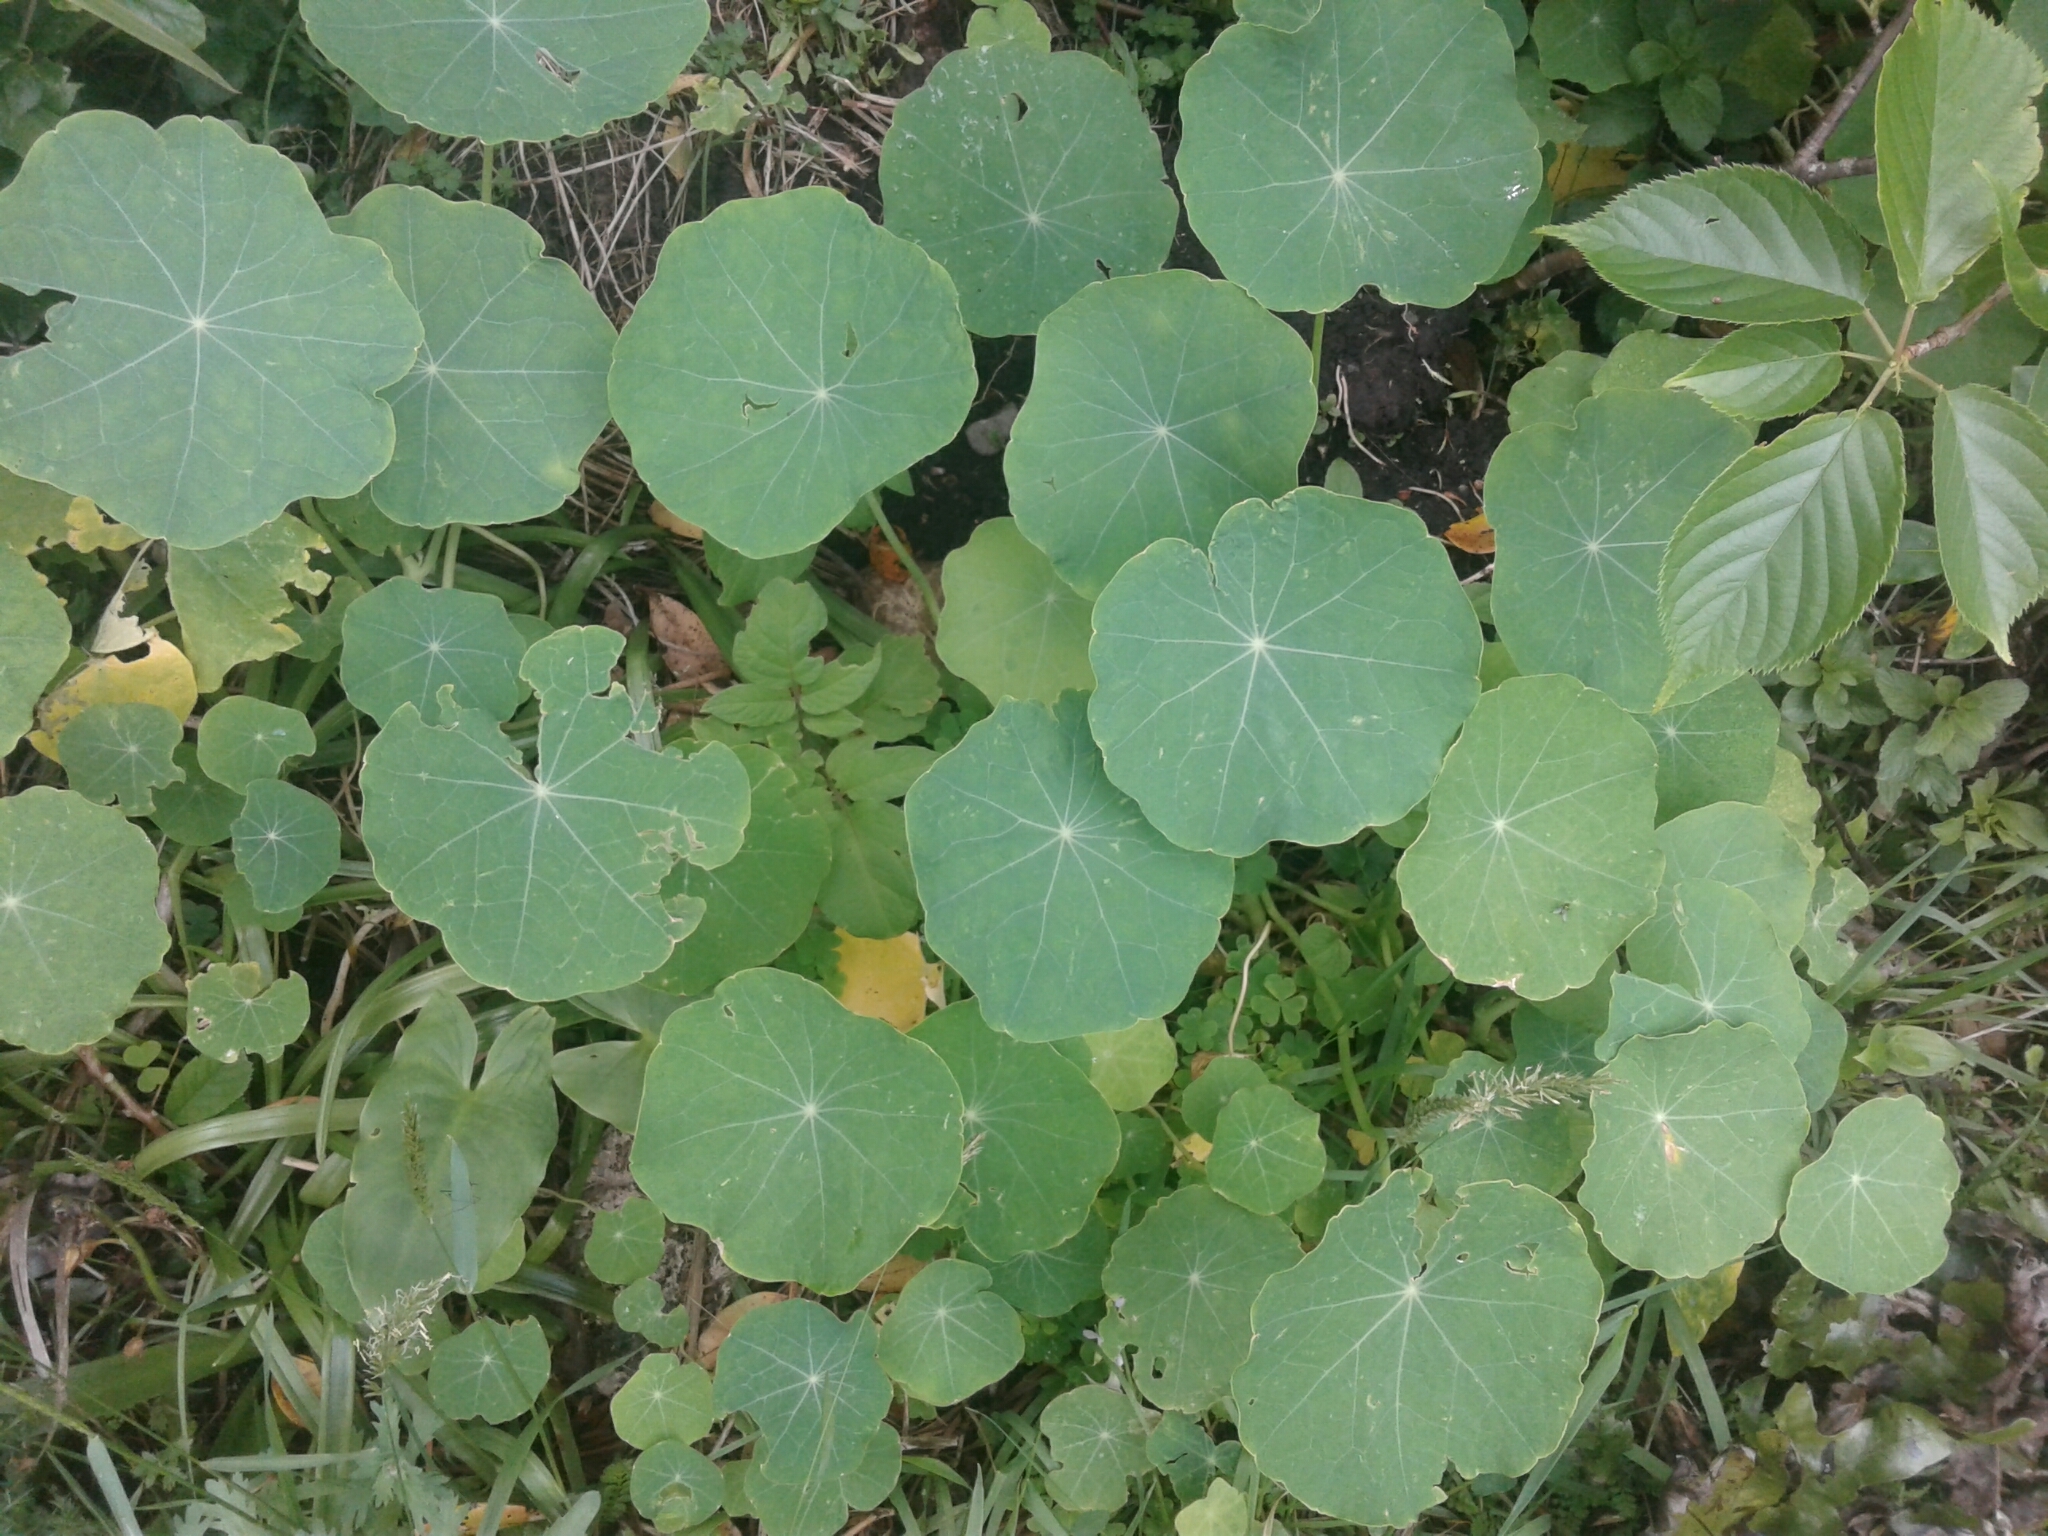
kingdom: Plantae
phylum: Tracheophyta
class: Magnoliopsida
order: Brassicales
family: Tropaeolaceae
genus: Tropaeolum
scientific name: Tropaeolum majus
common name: Nasturtium
